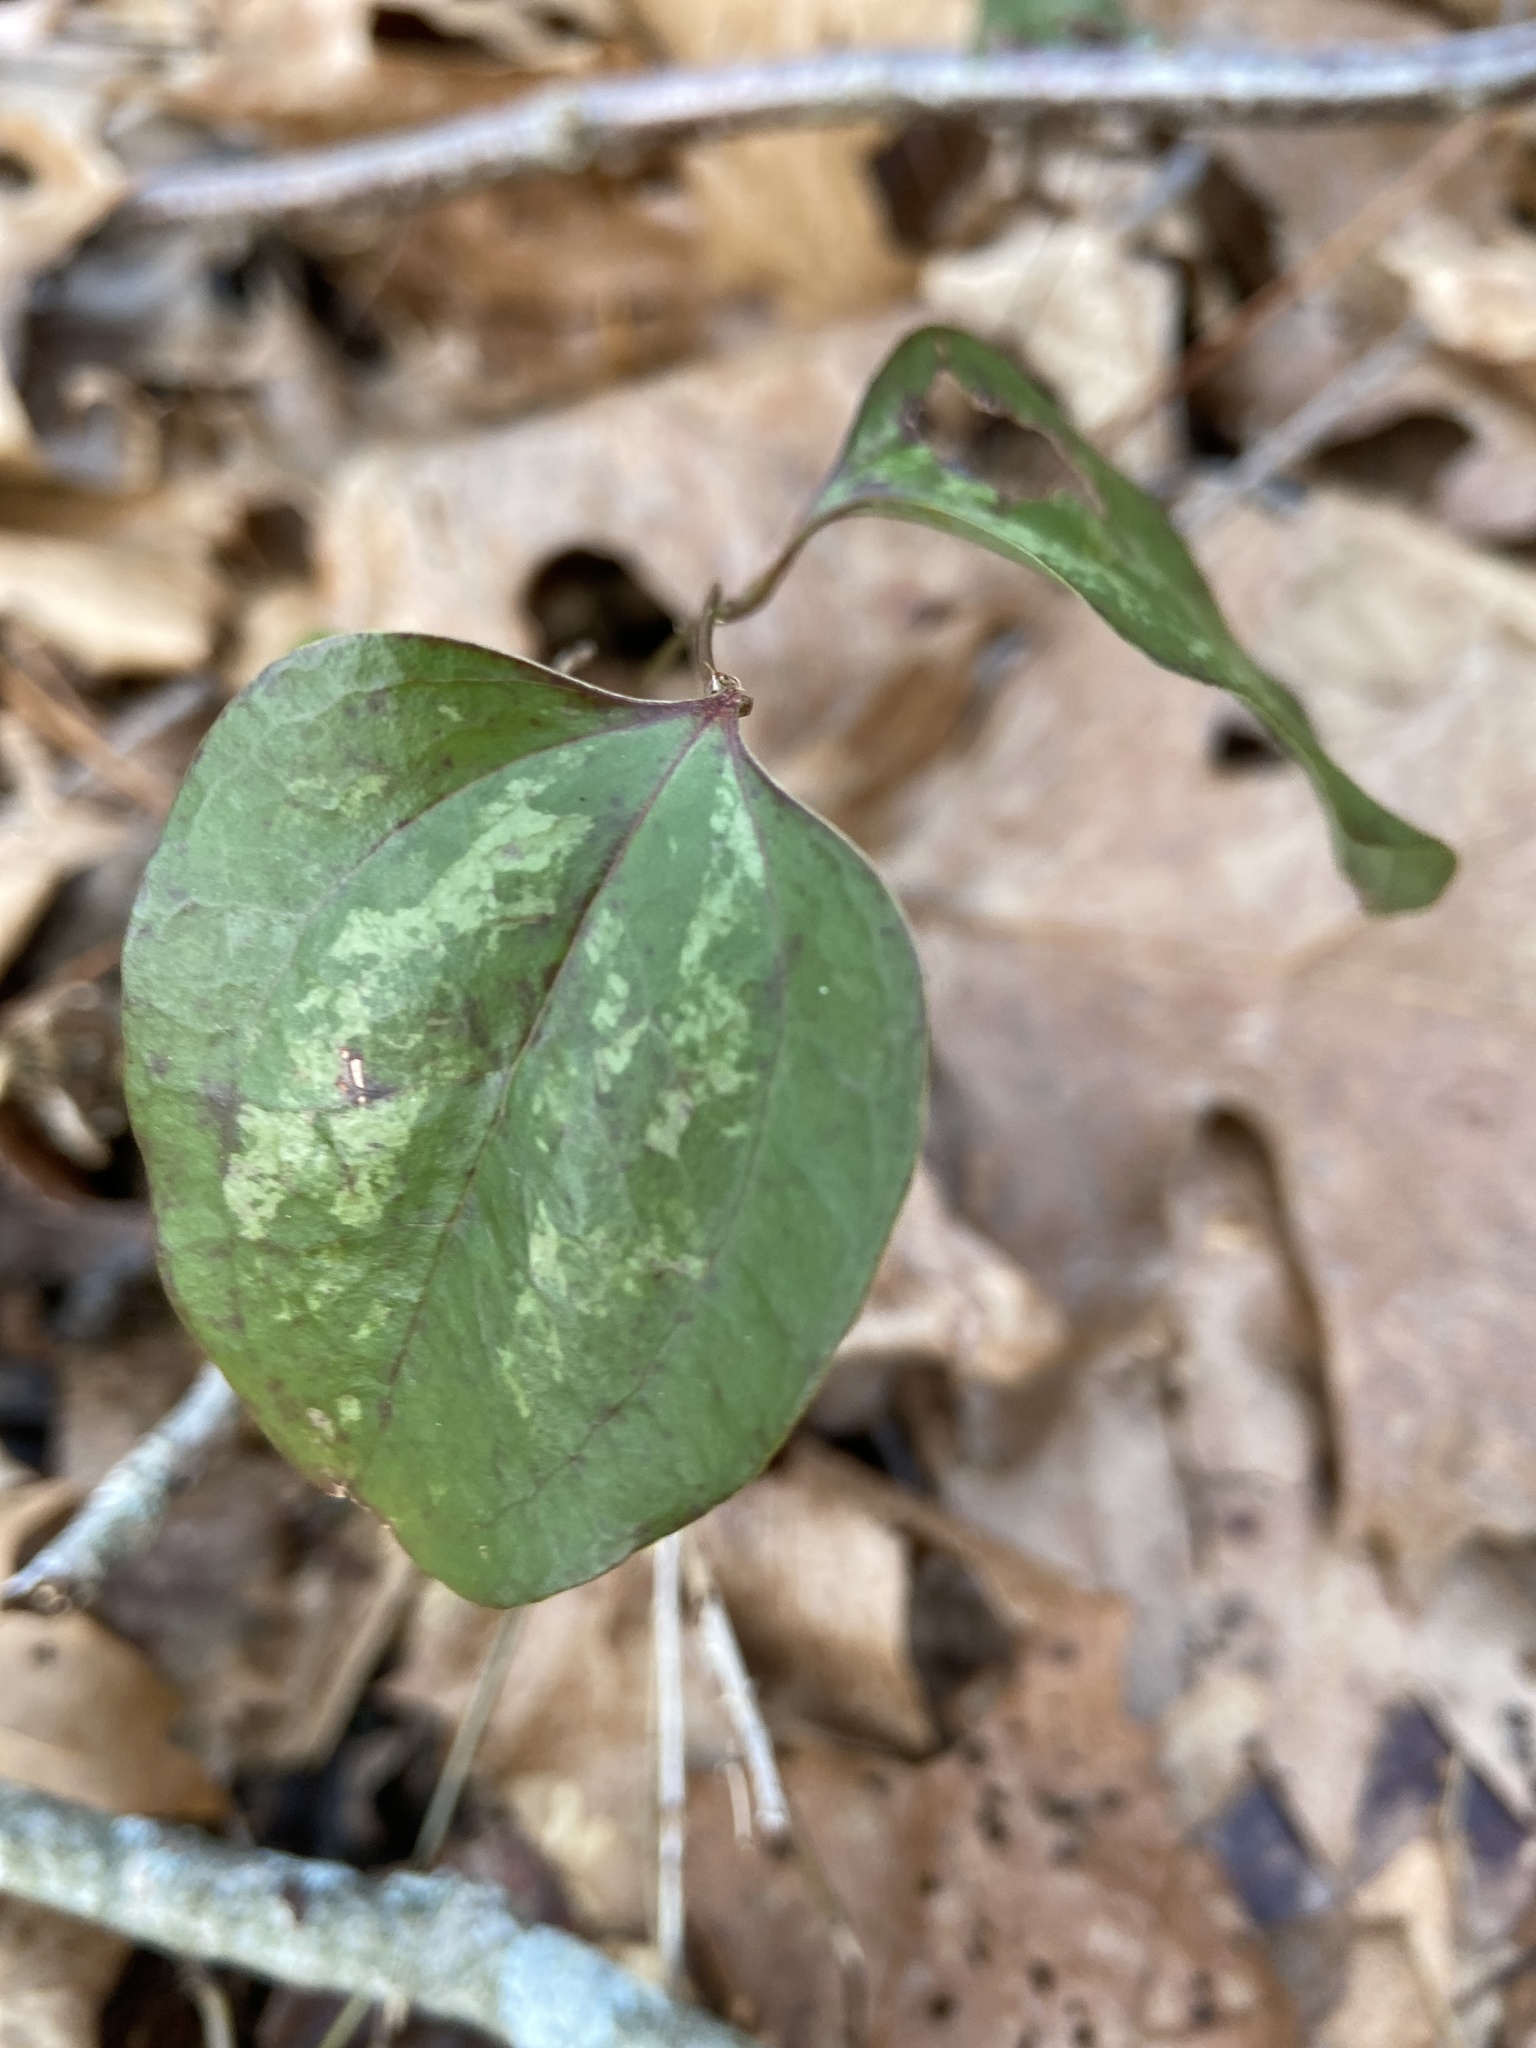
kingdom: Plantae
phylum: Tracheophyta
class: Liliopsida
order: Liliales
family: Smilacaceae
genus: Smilax
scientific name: Smilax glauca
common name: Cat greenbrier
